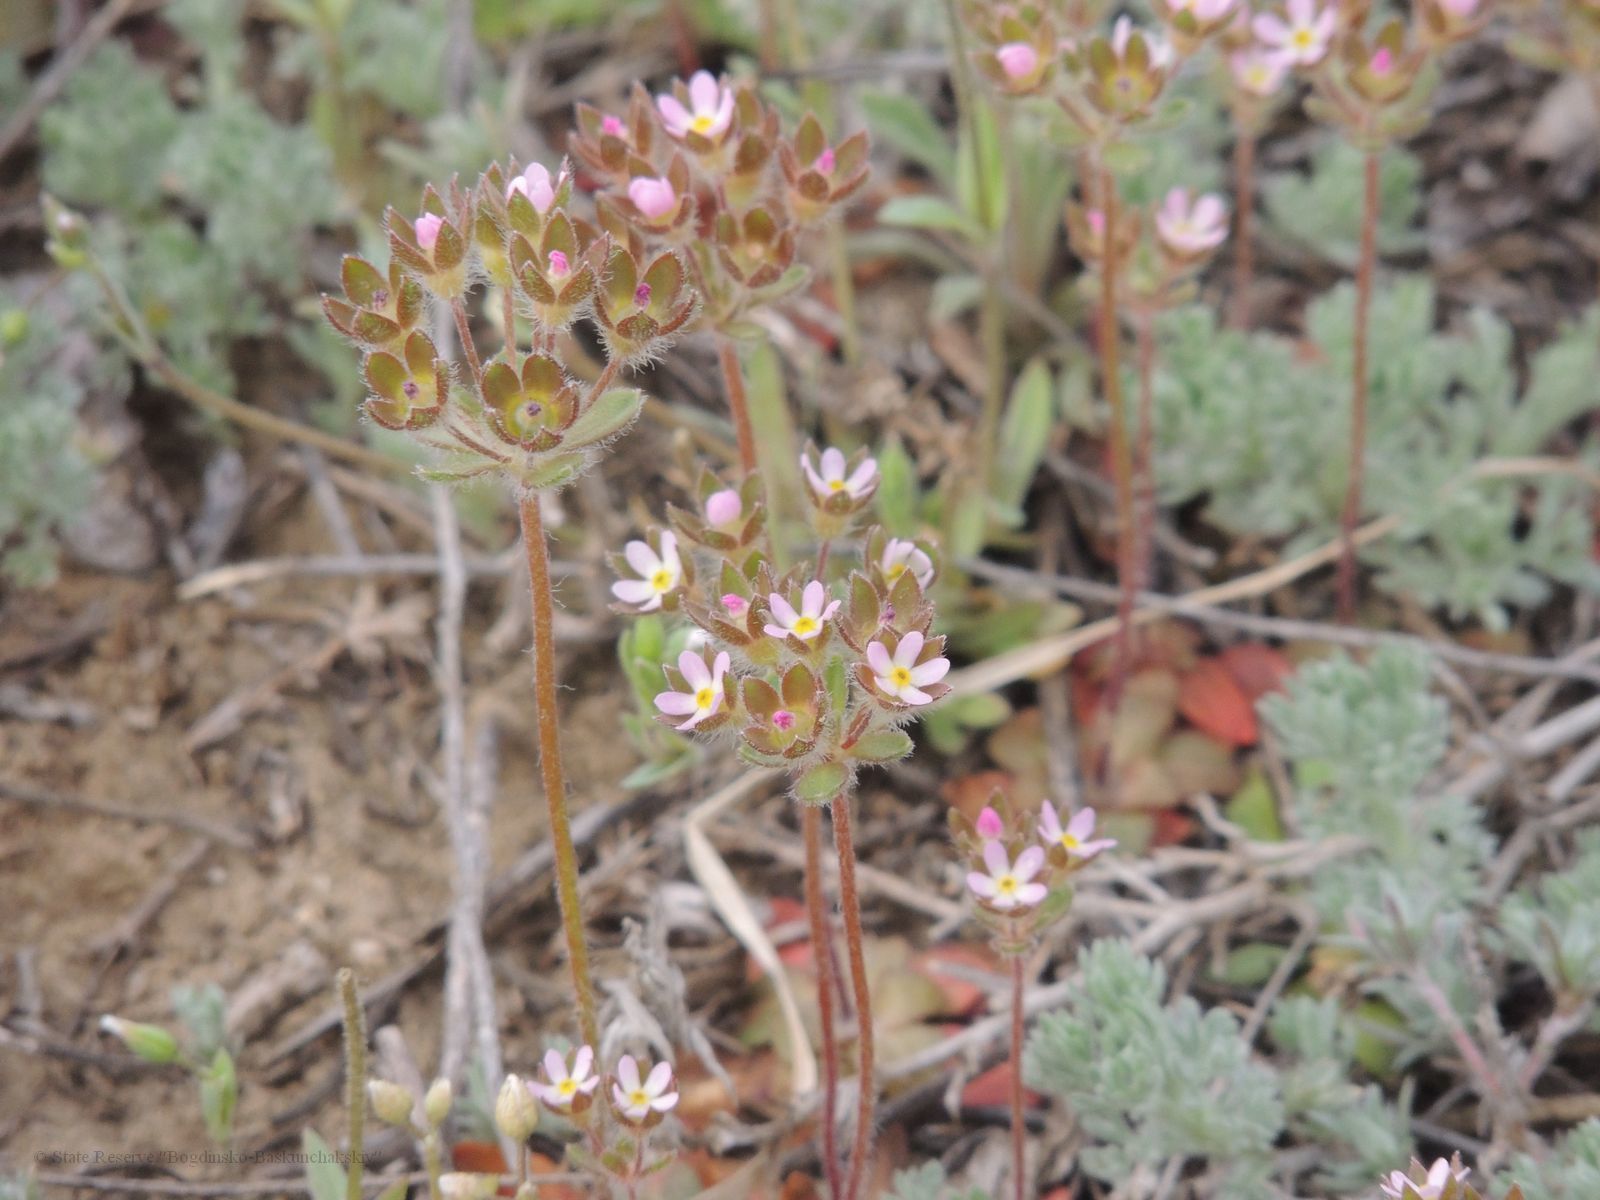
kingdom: Plantae
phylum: Tracheophyta
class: Magnoliopsida
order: Ericales
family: Primulaceae
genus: Androsace
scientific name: Androsace maxima
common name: Annual androsace
